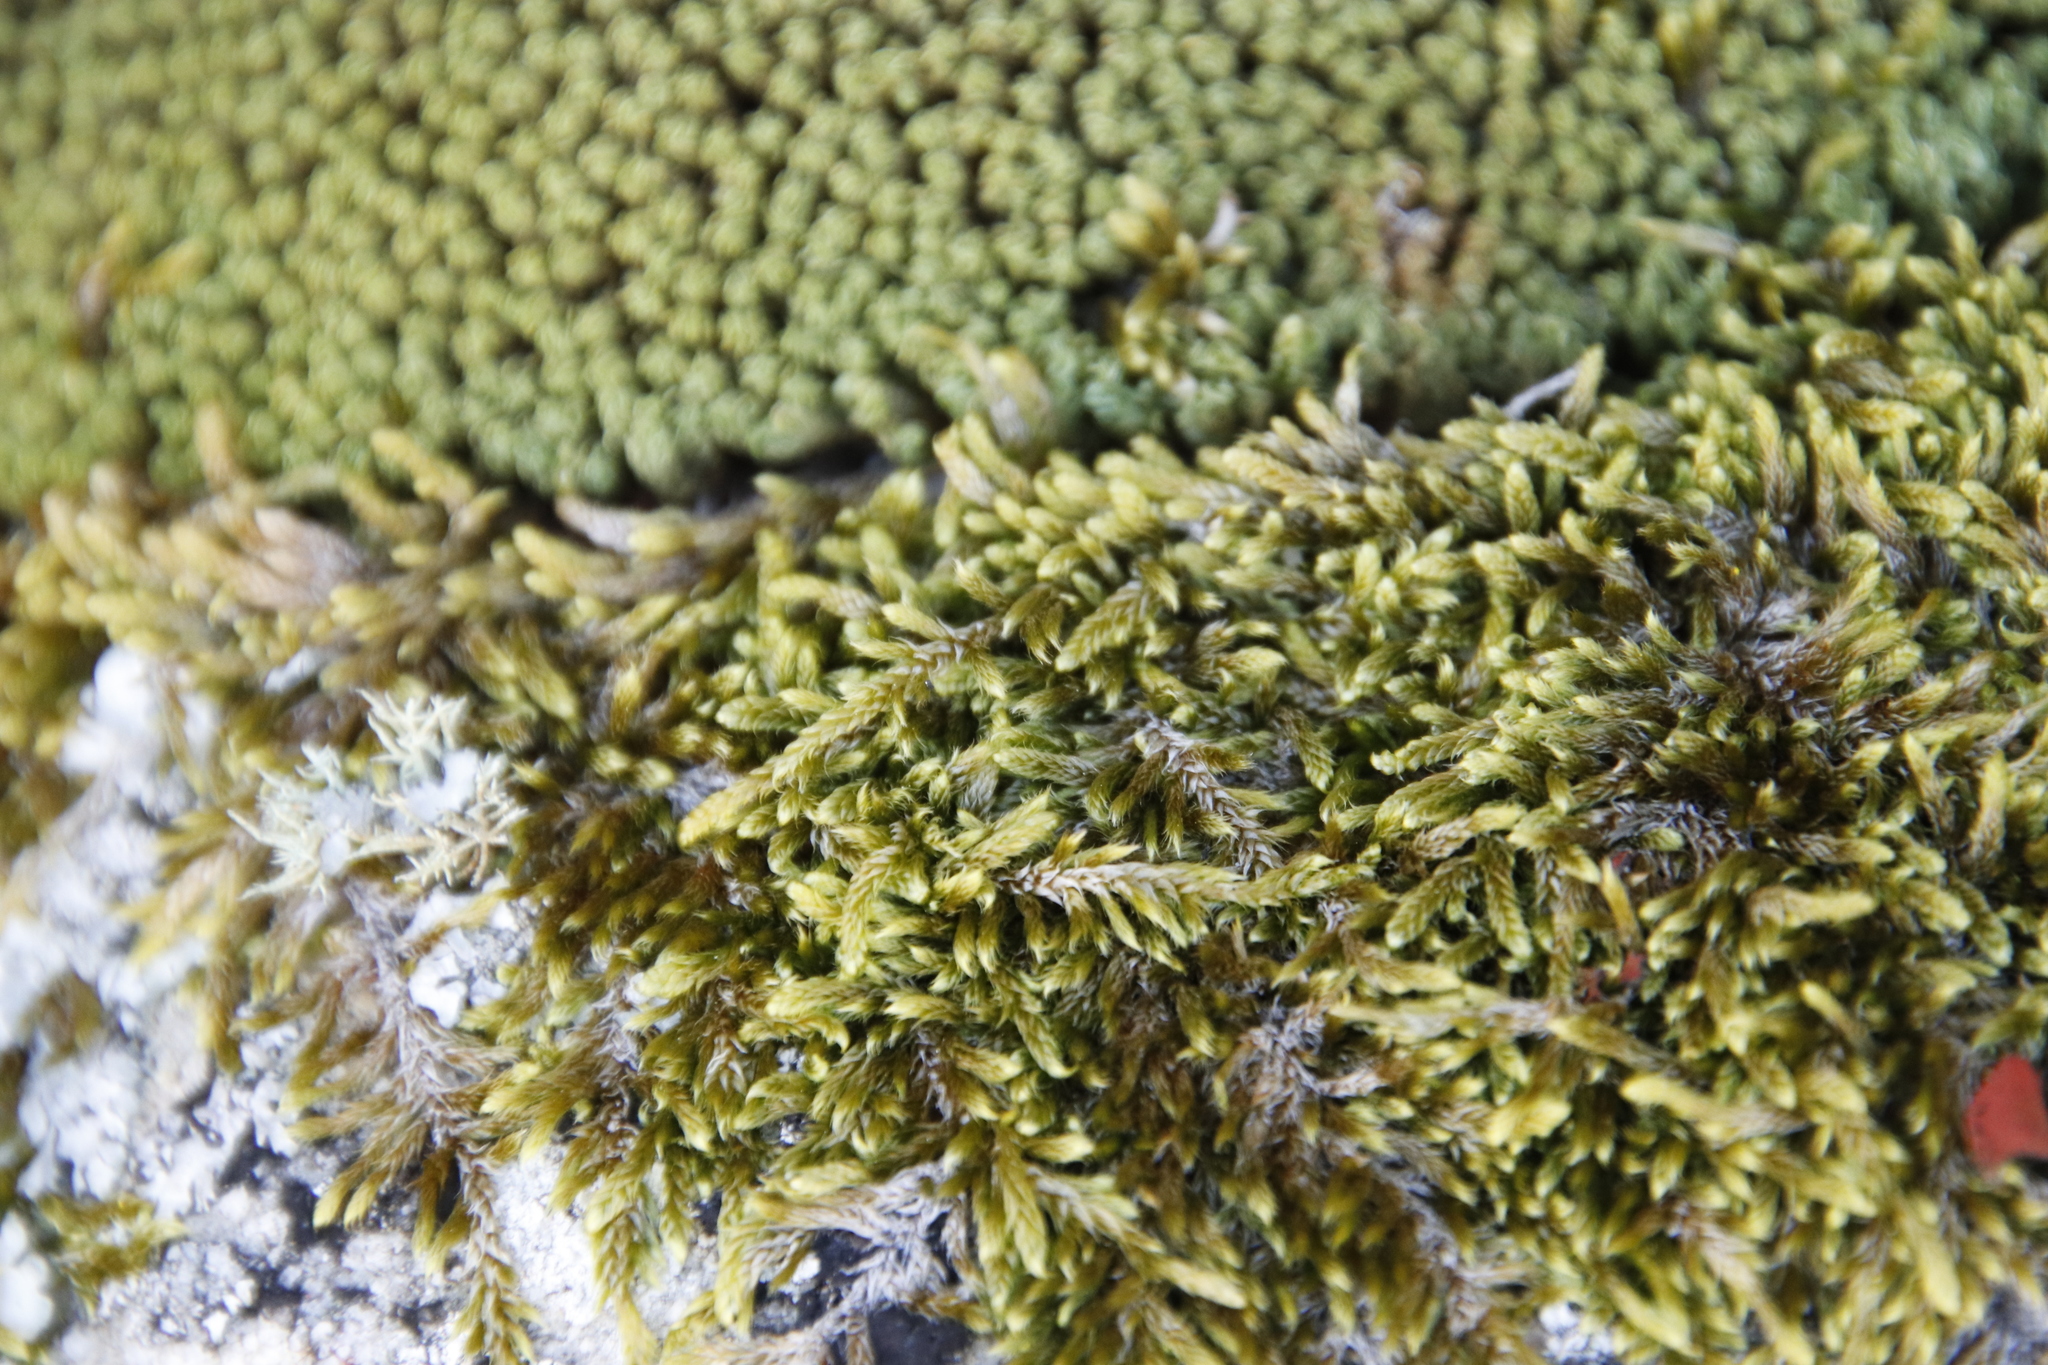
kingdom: Plantae
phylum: Bryophyta
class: Bryopsida
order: Hypnales
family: Hypnaceae
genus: Hypnum
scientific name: Hypnum cupressiforme
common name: Cypress-leaved plait-moss
